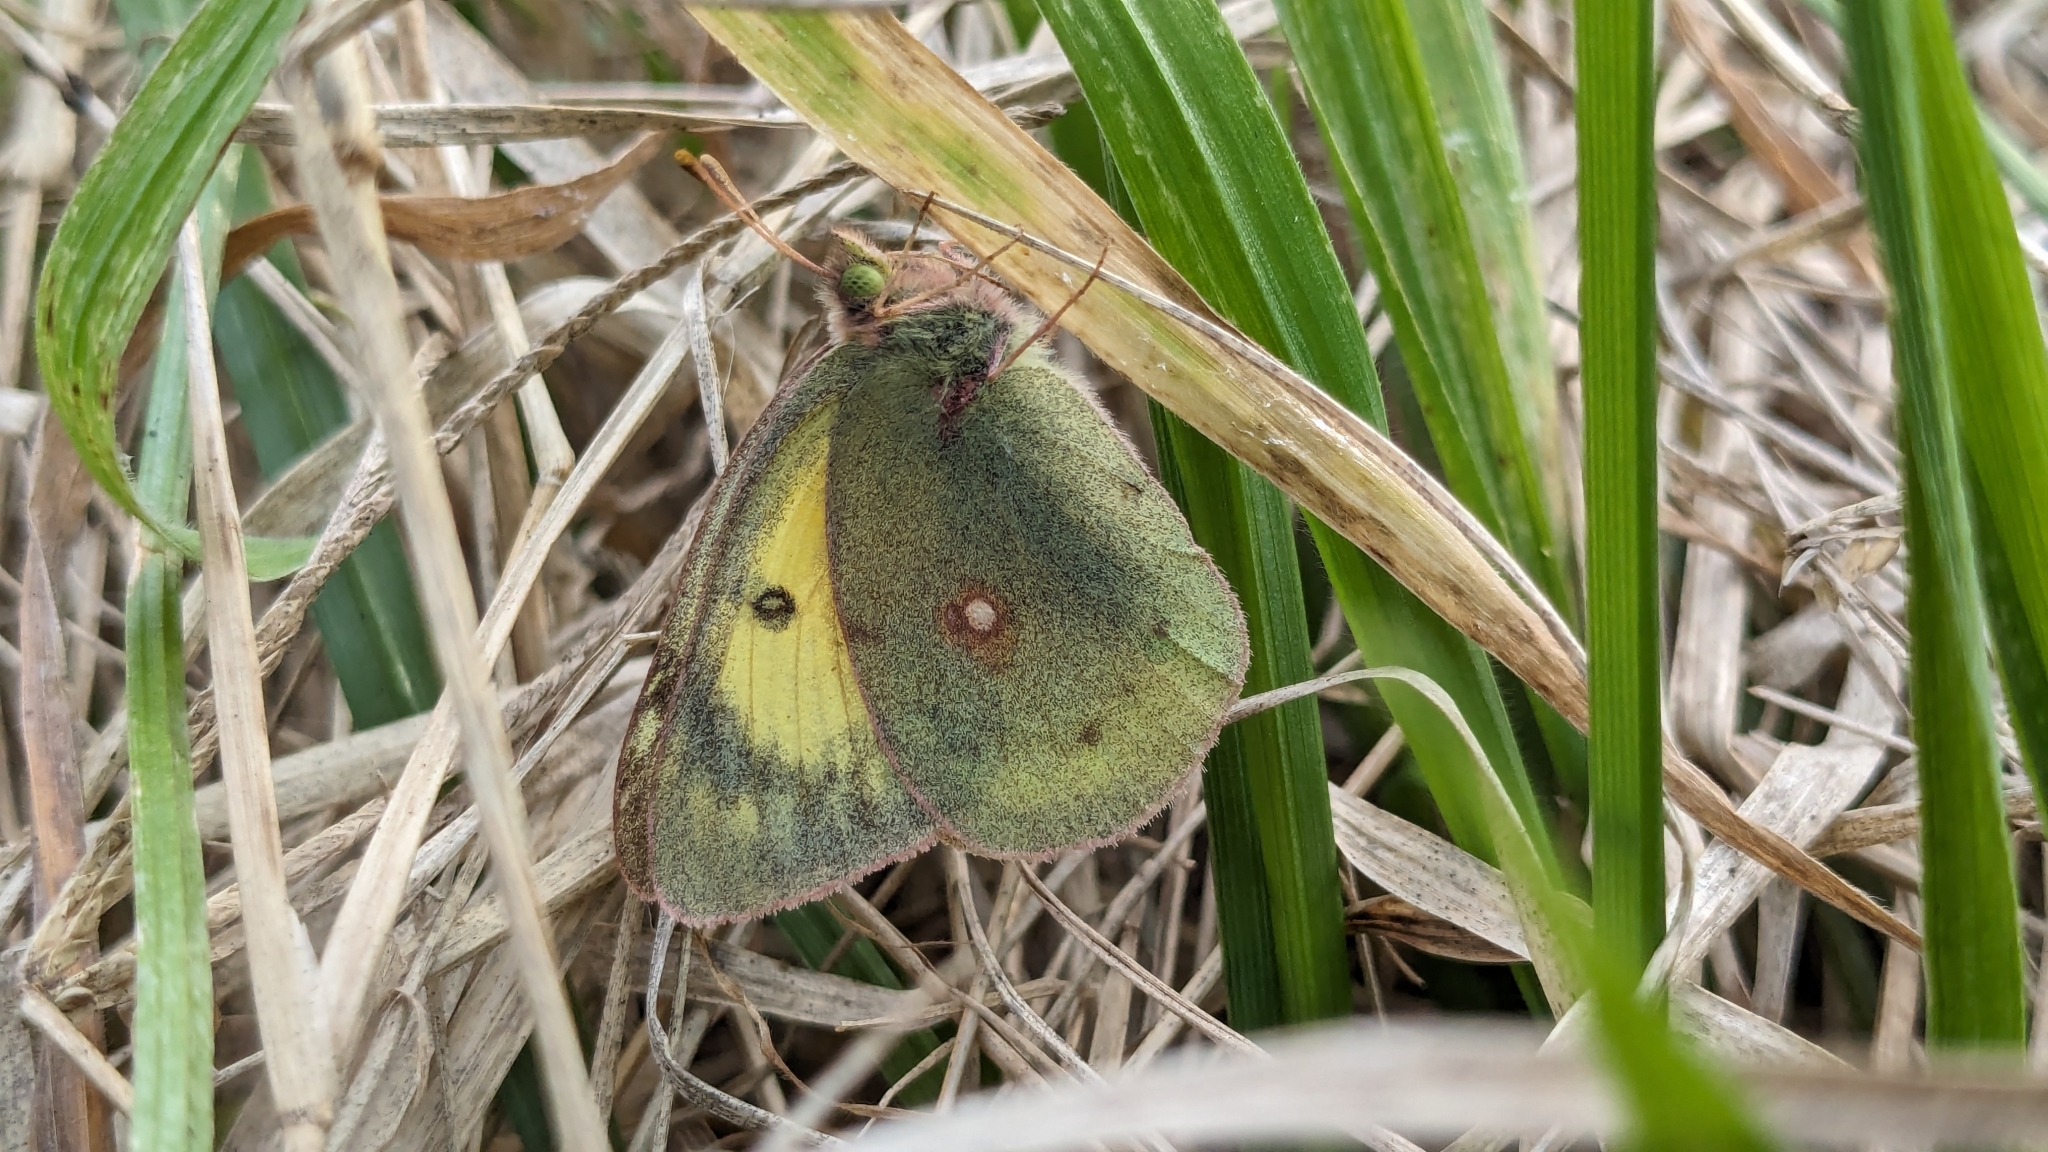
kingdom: Animalia
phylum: Arthropoda
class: Insecta
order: Lepidoptera
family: Pieridae
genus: Colias
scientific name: Colias eurytheme
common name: Alfalfa butterfly
